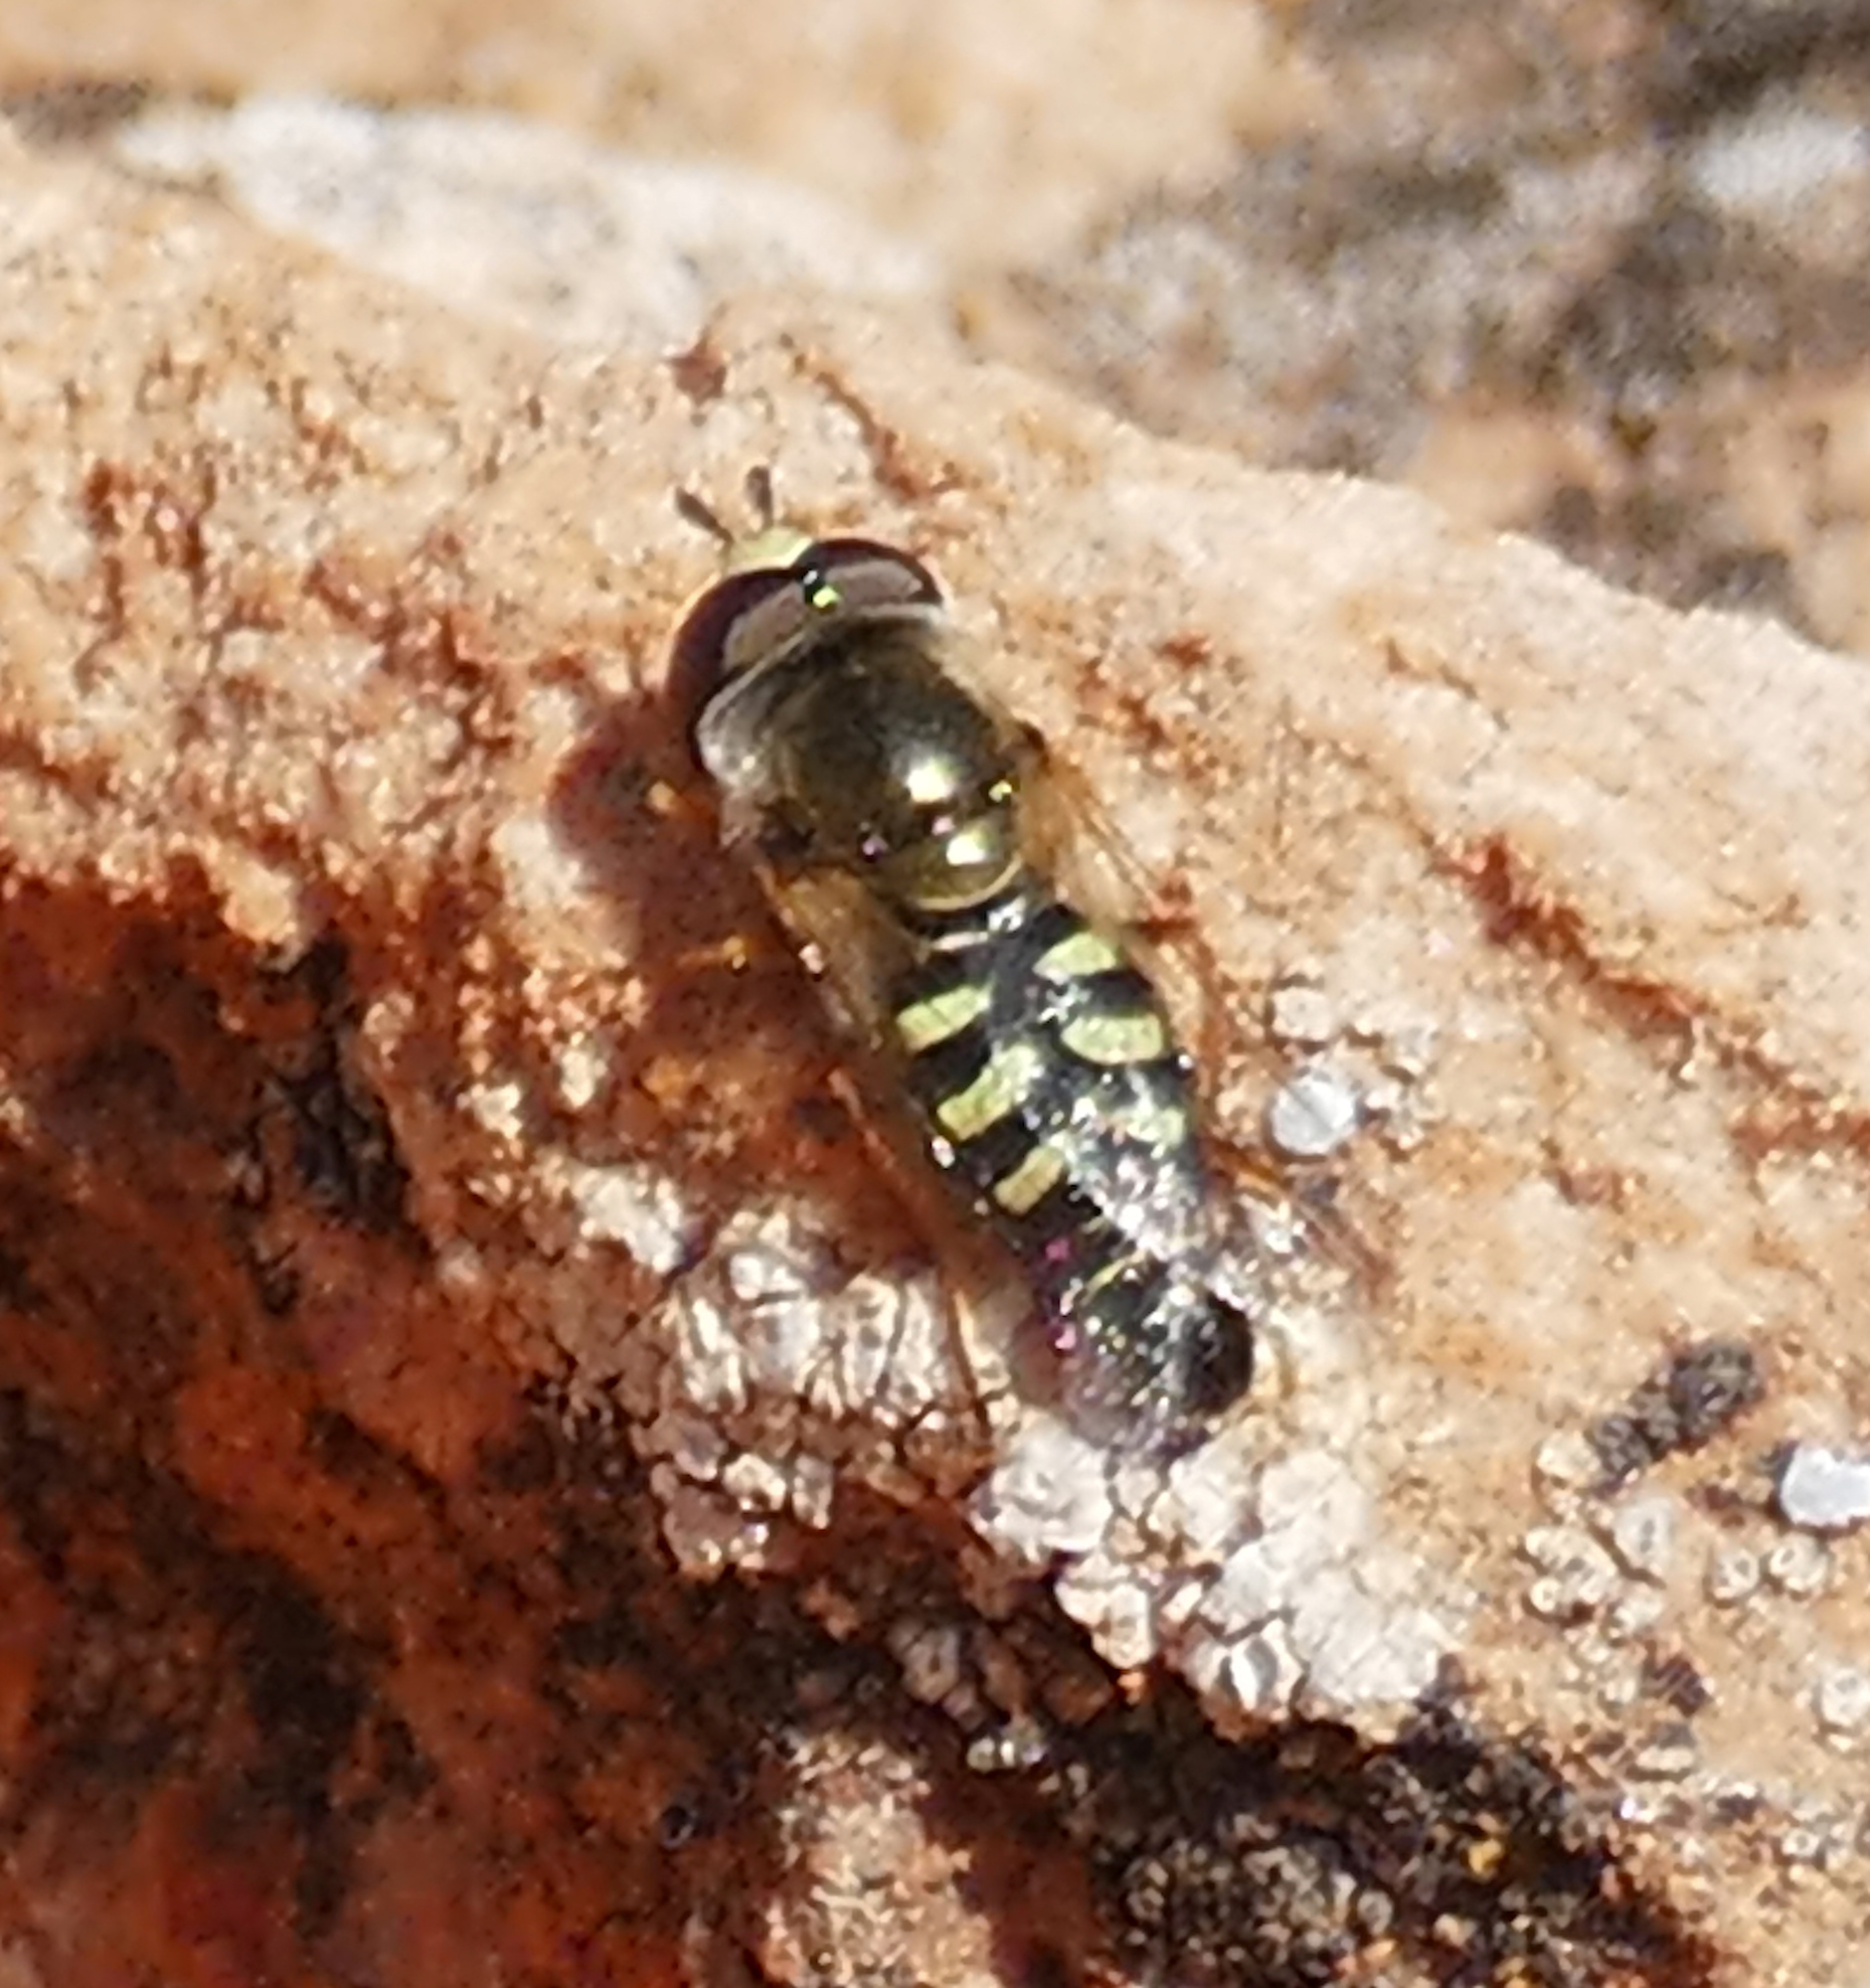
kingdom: Animalia
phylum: Arthropoda
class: Insecta
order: Diptera
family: Syrphidae
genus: Eupeodes
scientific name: Eupeodes volucris
